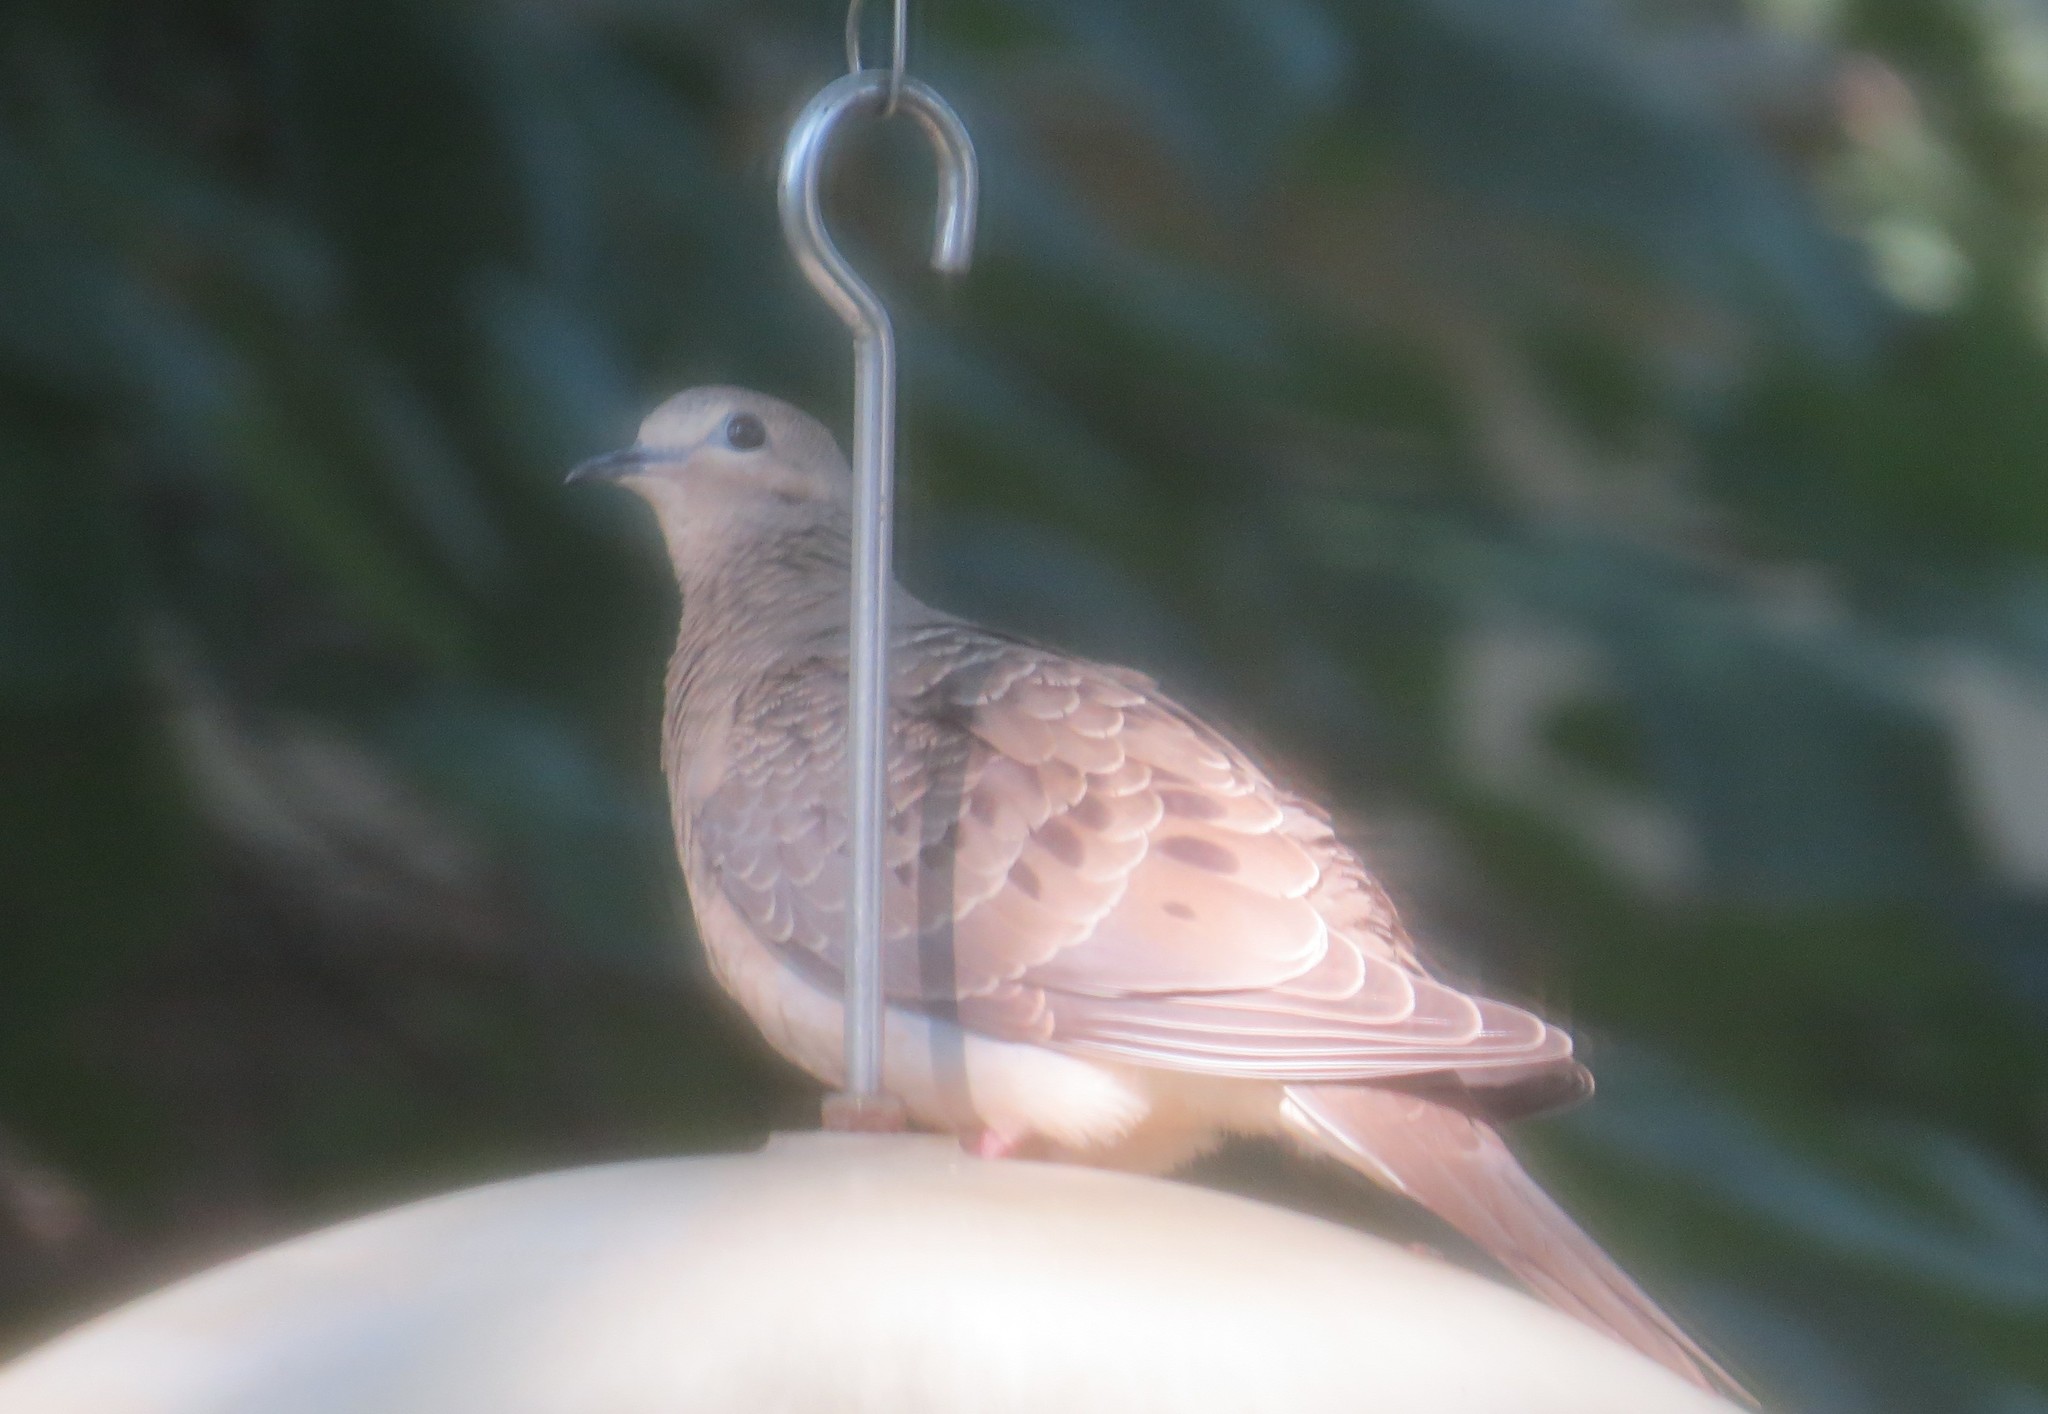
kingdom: Animalia
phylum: Chordata
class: Aves
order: Columbiformes
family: Columbidae
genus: Zenaida
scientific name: Zenaida macroura
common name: Mourning dove
